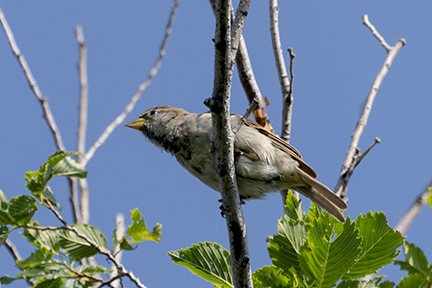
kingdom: Animalia
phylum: Chordata
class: Aves
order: Passeriformes
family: Passeridae
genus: Passer
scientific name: Passer domesticus
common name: House sparrow
